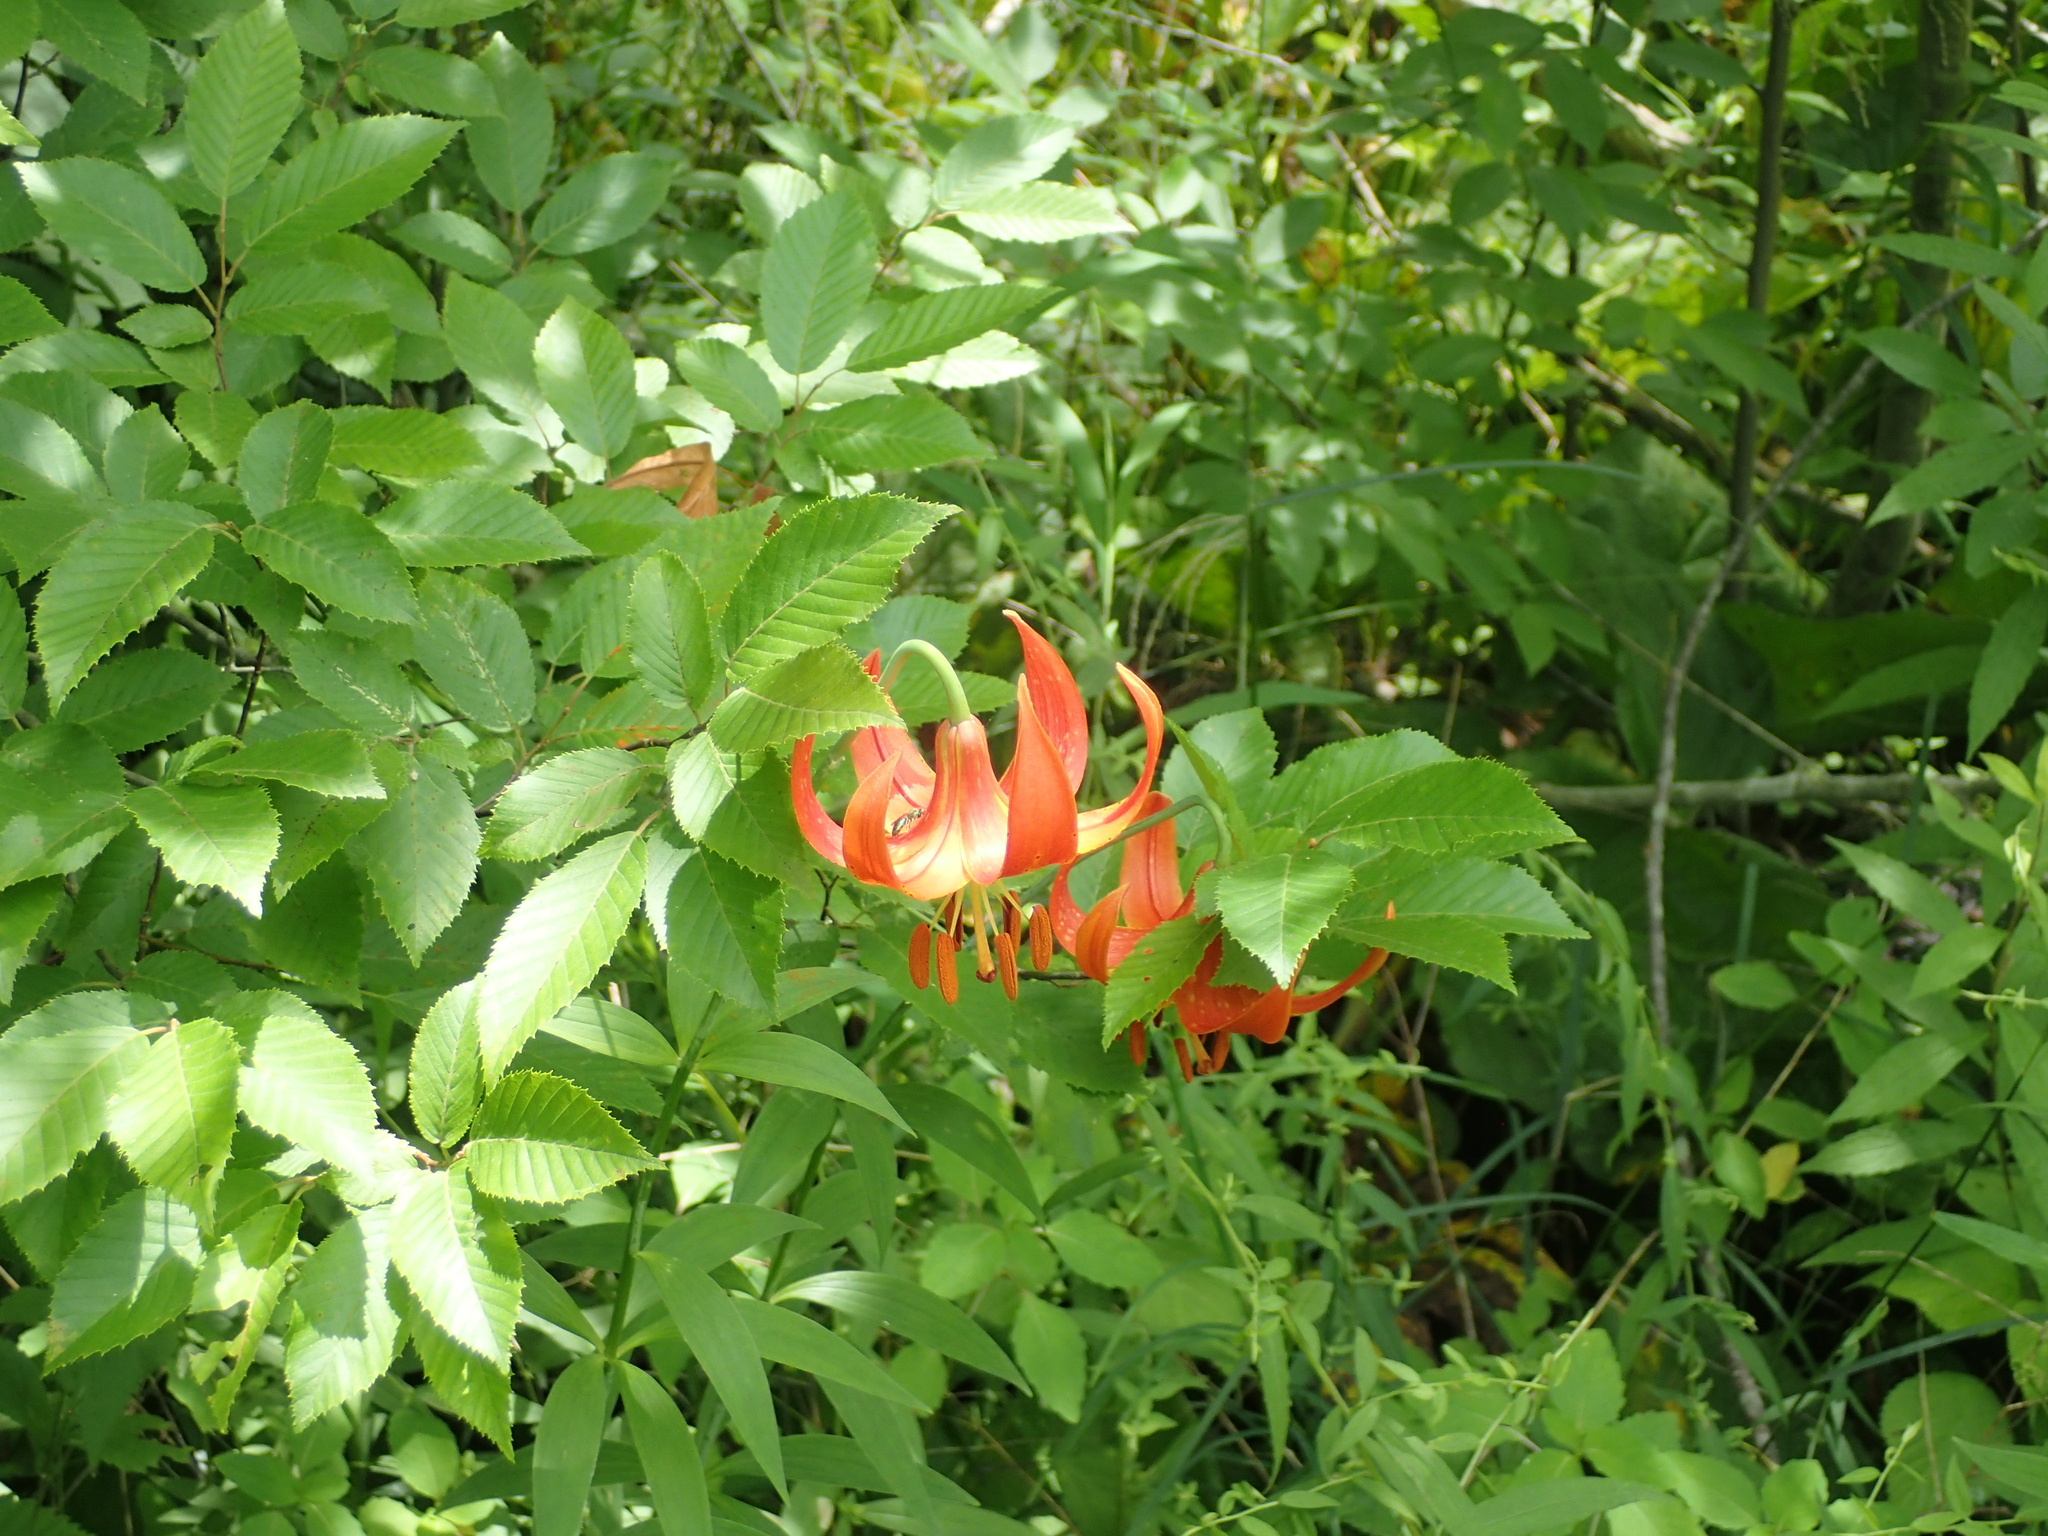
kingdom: Plantae
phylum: Tracheophyta
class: Liliopsida
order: Liliales
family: Liliaceae
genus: Lilium
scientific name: Lilium michiganense
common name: Michigan lily
